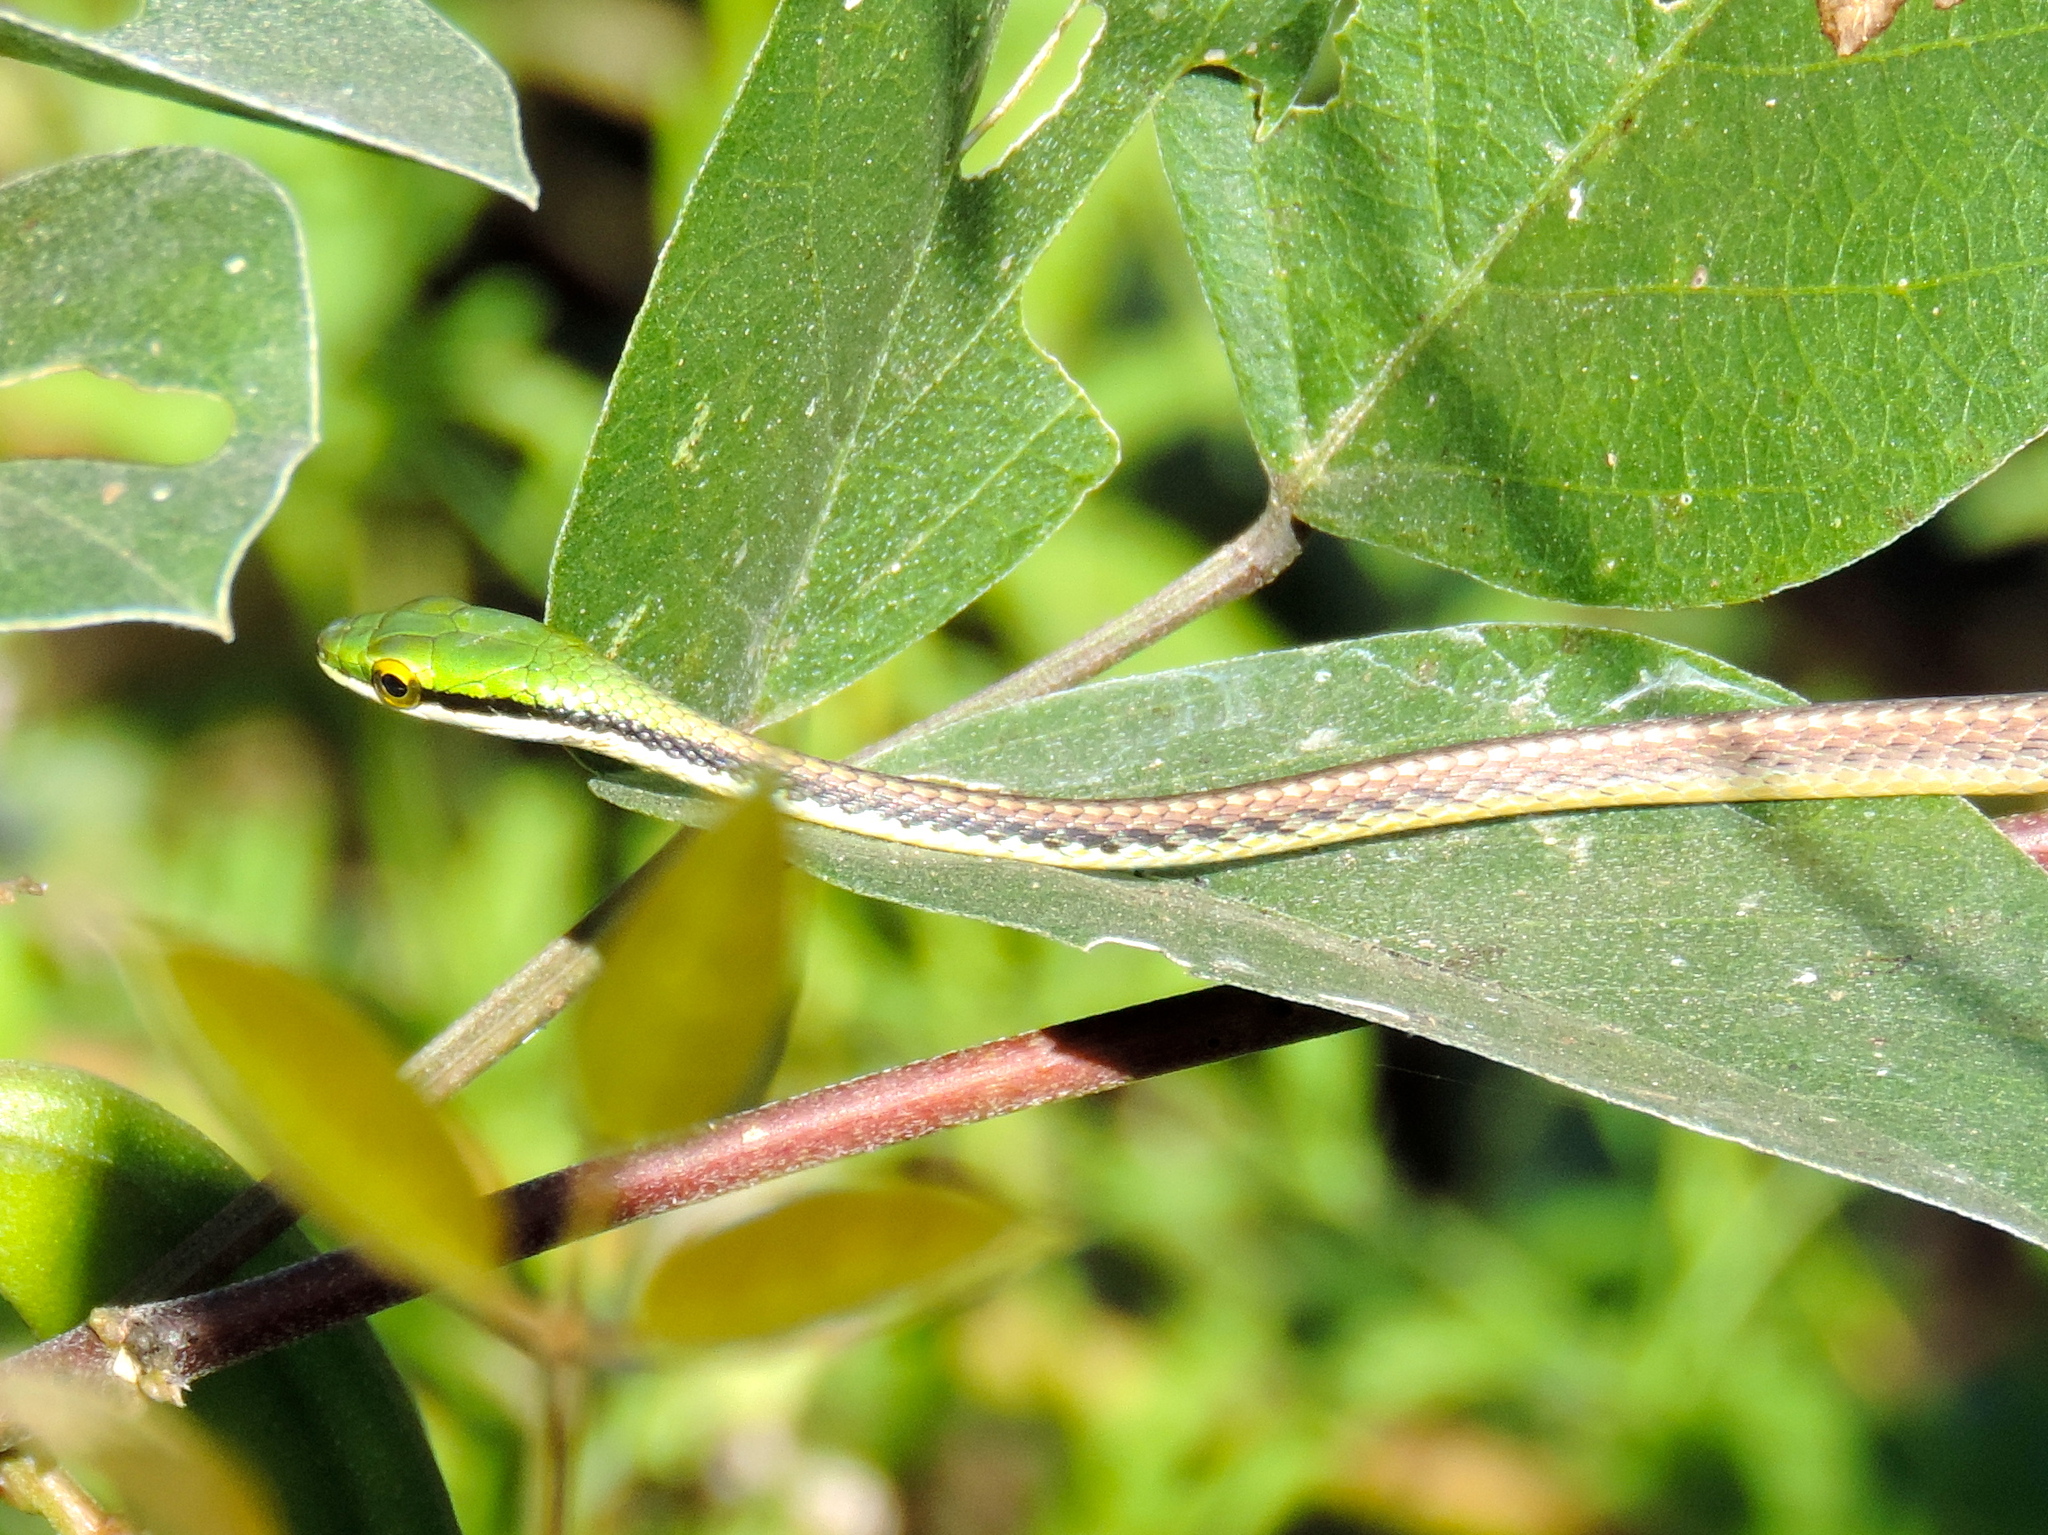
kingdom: Animalia
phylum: Chordata
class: Squamata
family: Colubridae
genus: Leptophis
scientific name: Leptophis diplotropis
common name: Pacific coast parrot snake
